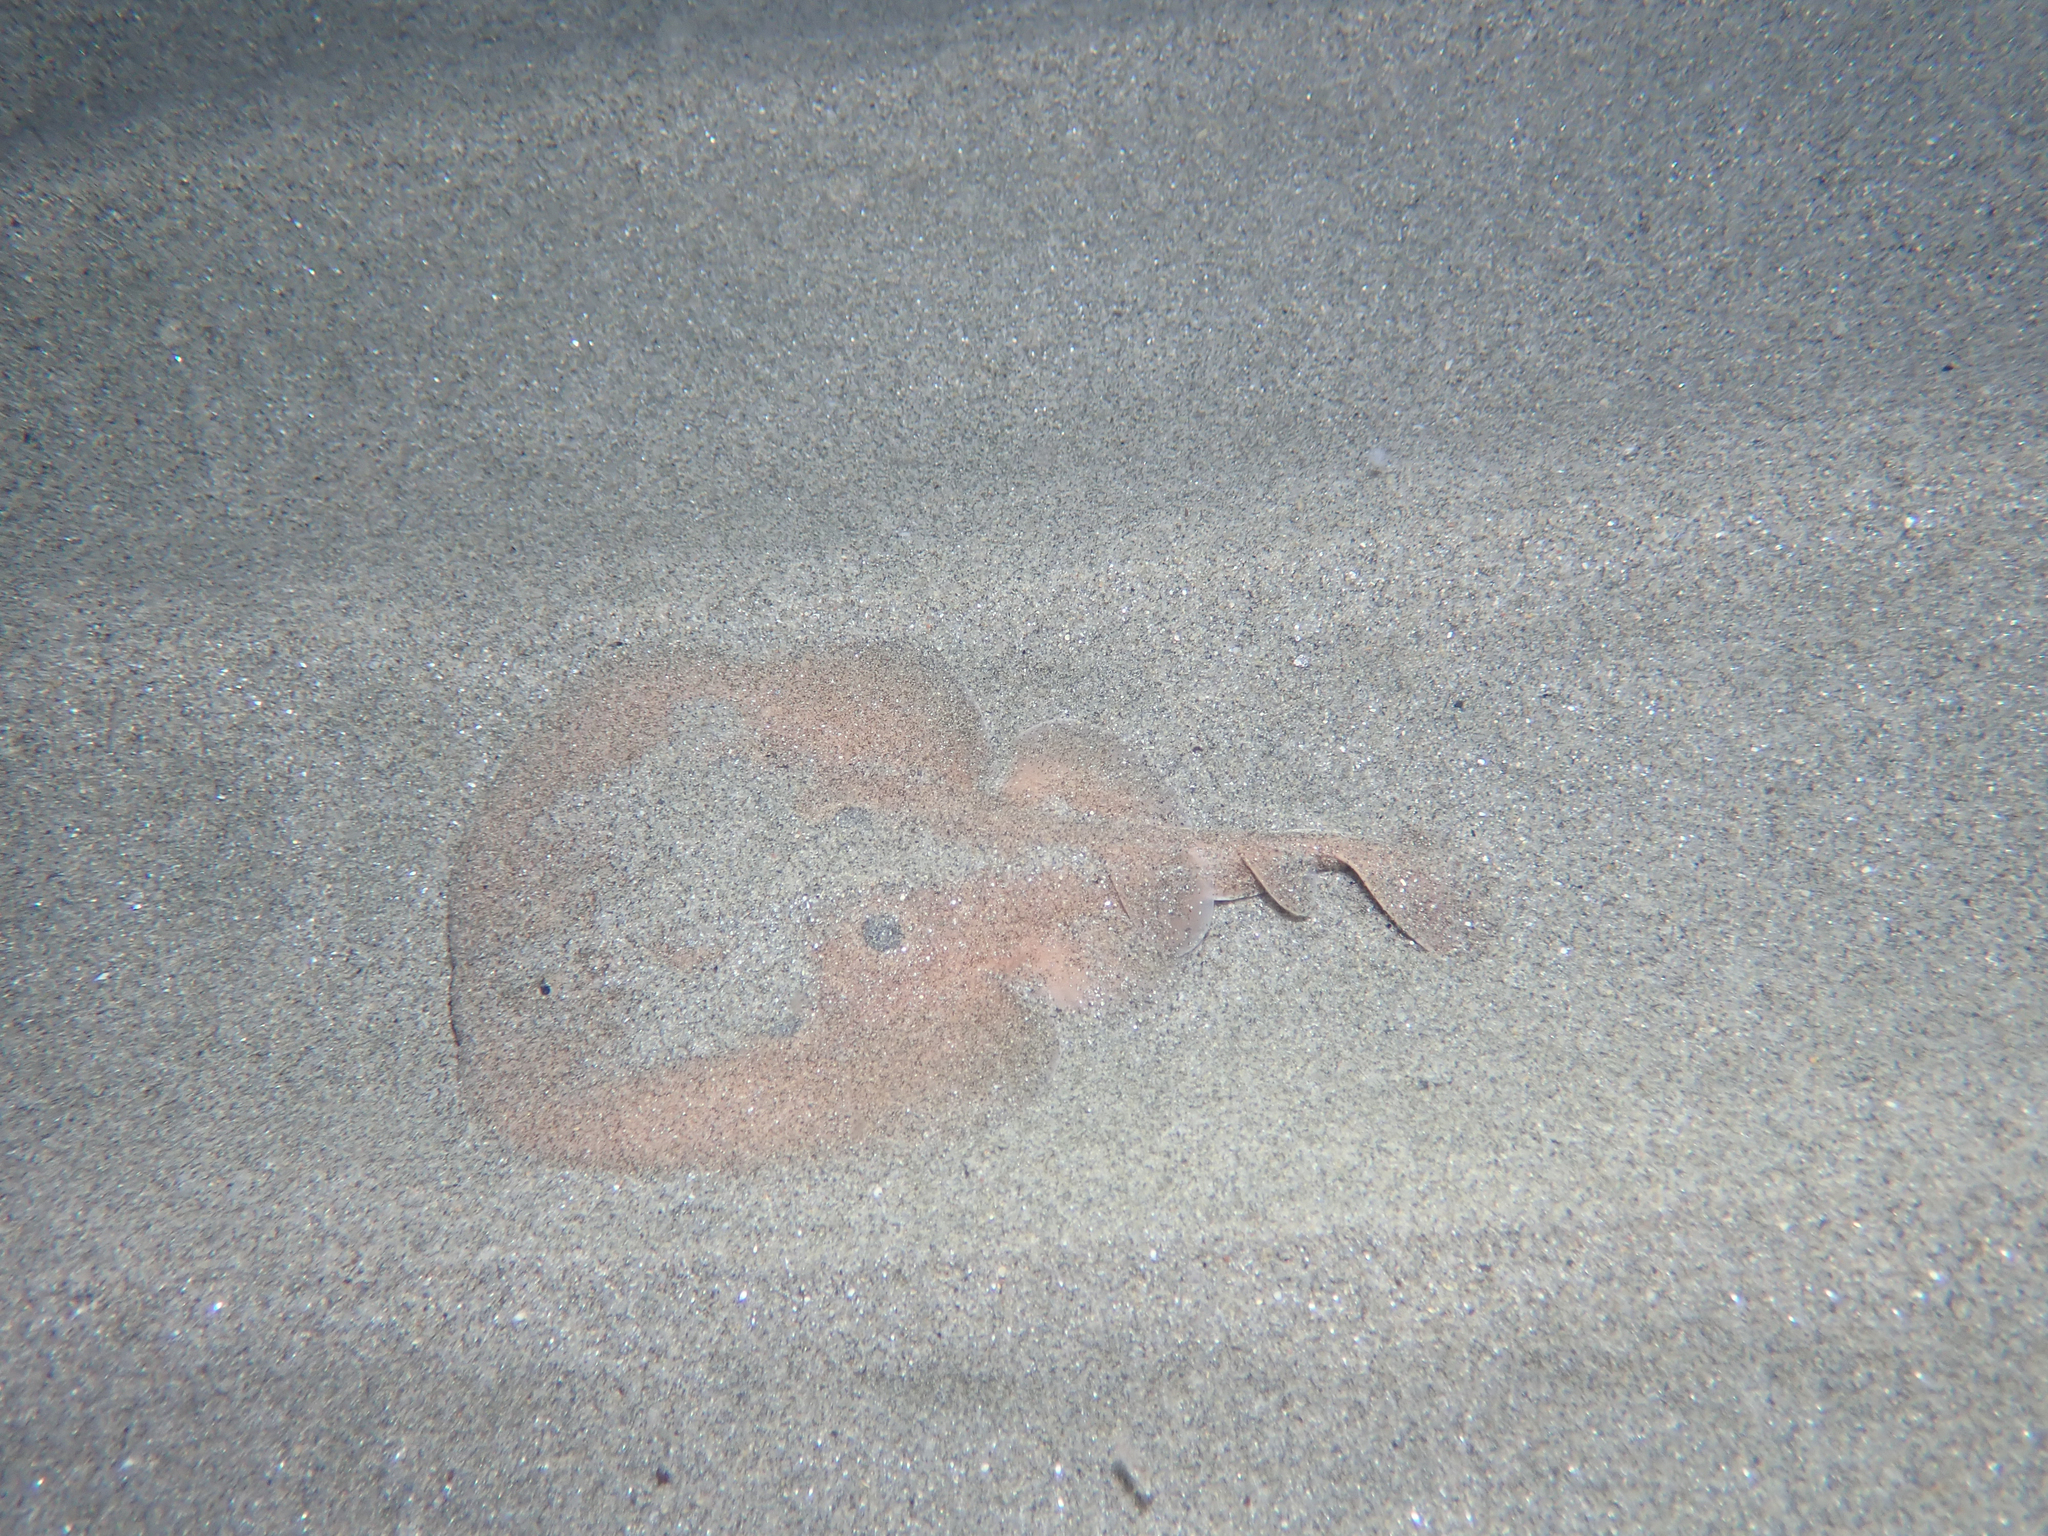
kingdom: Animalia
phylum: Chordata
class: Elasmobranchii
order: Torpediniformes
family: Torpedinidae
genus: Torpedo
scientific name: Torpedo torpedo
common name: Common torpedo
